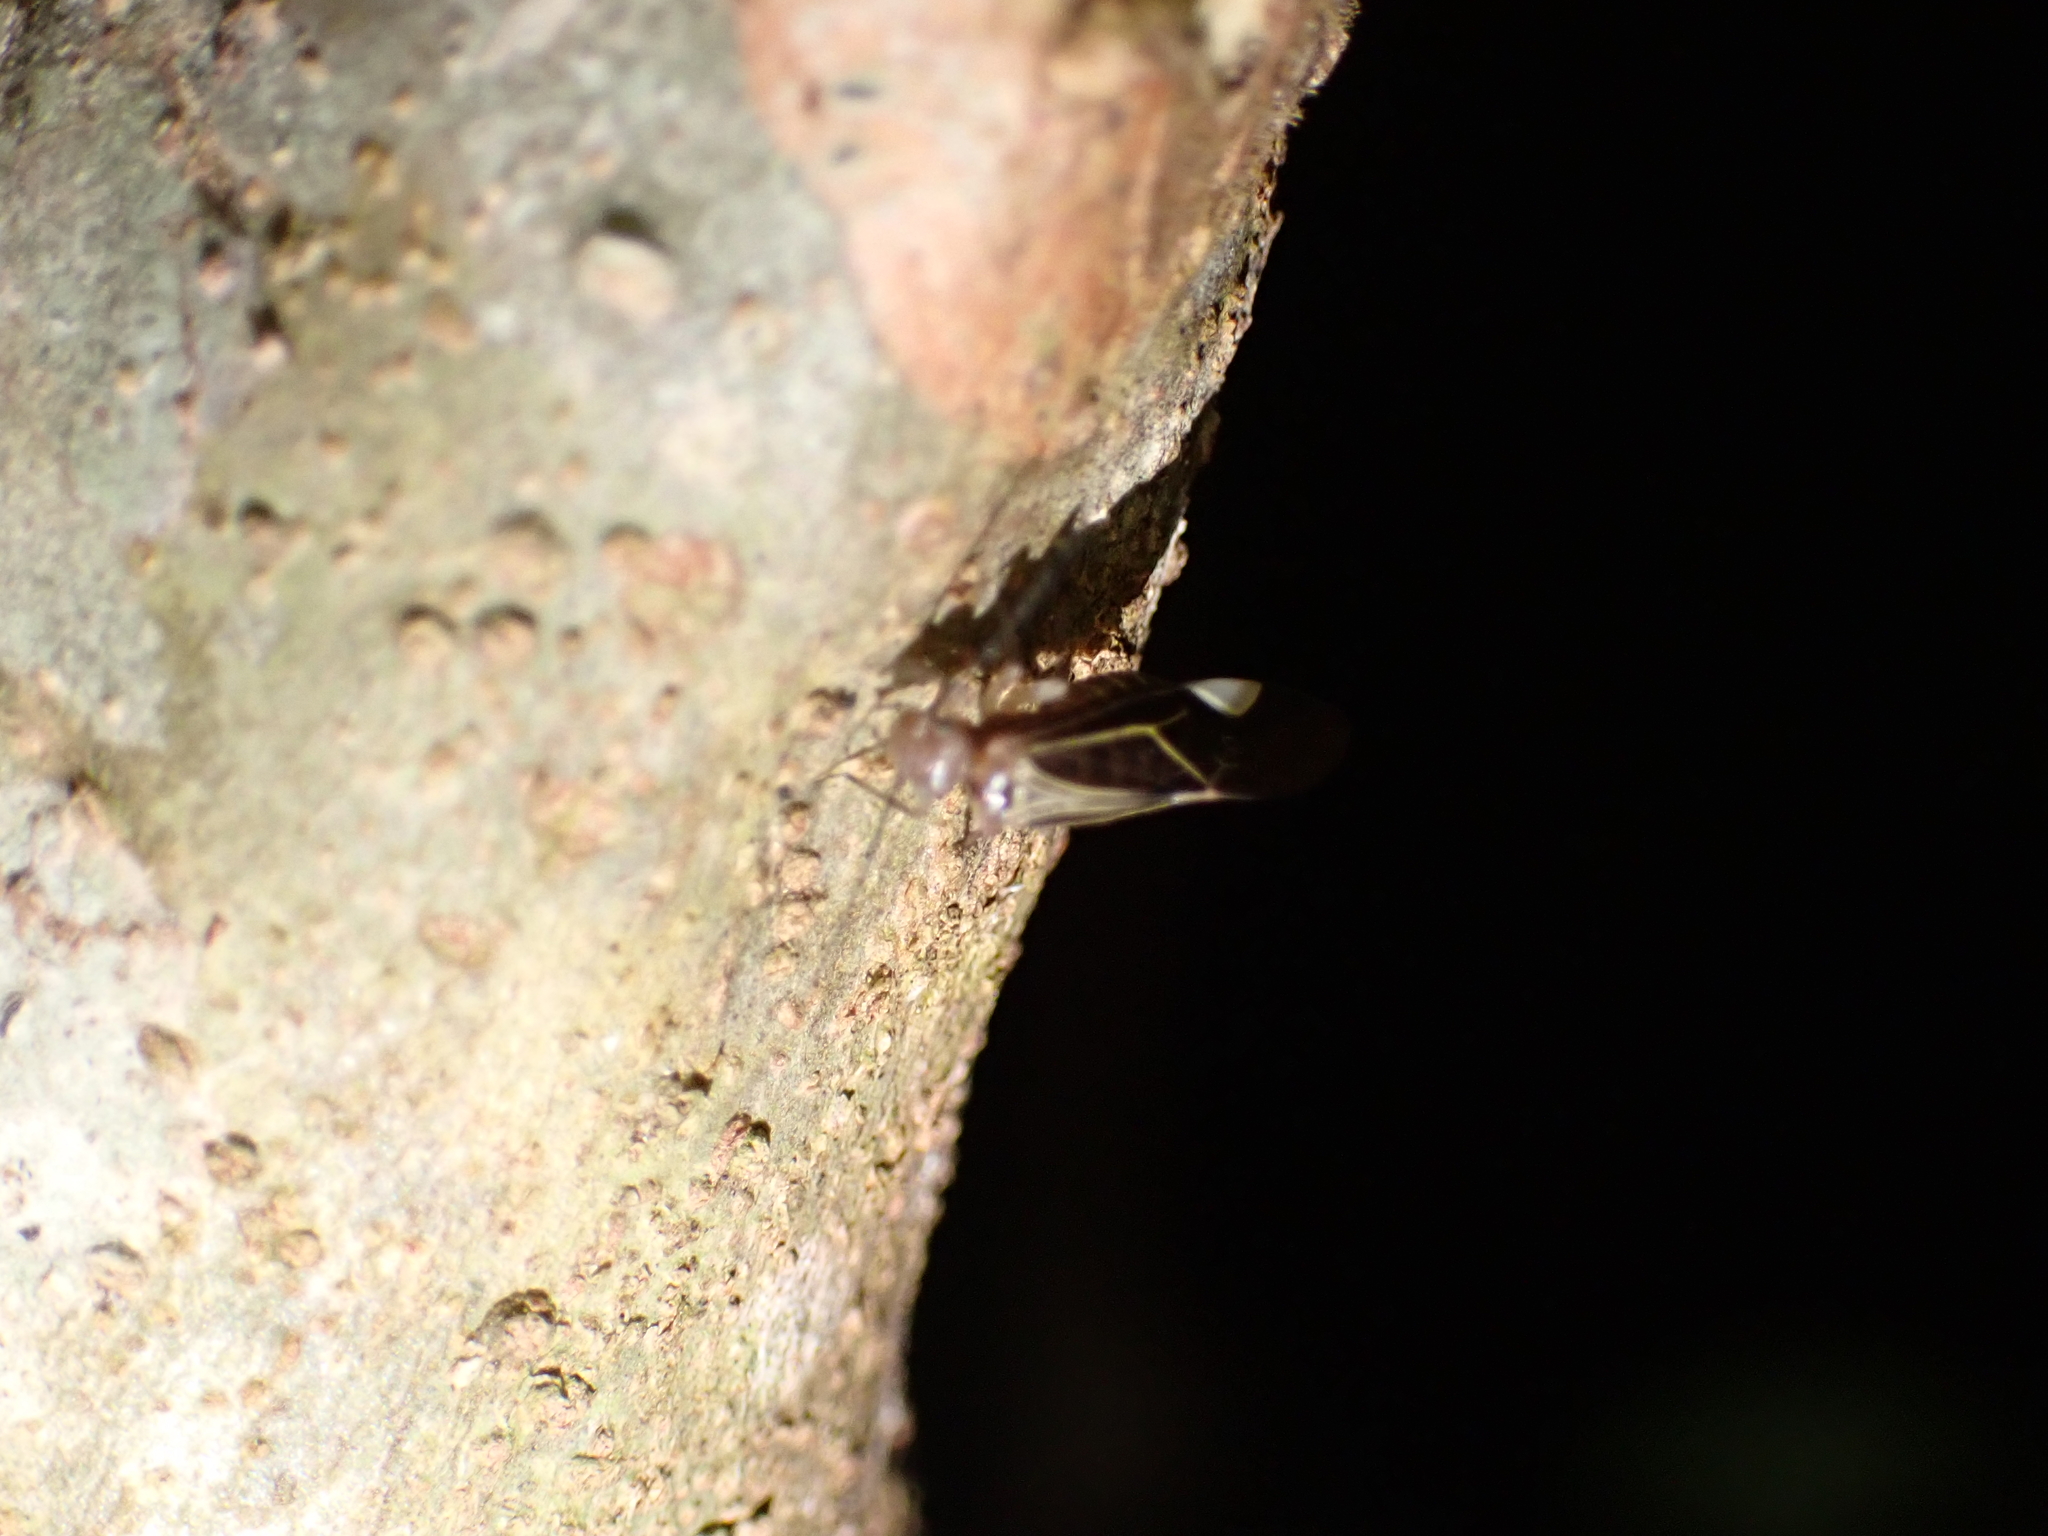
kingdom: Animalia
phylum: Arthropoda
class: Insecta
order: Psocodea
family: Psocidae
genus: Cerastipsocus
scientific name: Cerastipsocus venosus
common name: Tree cattle
